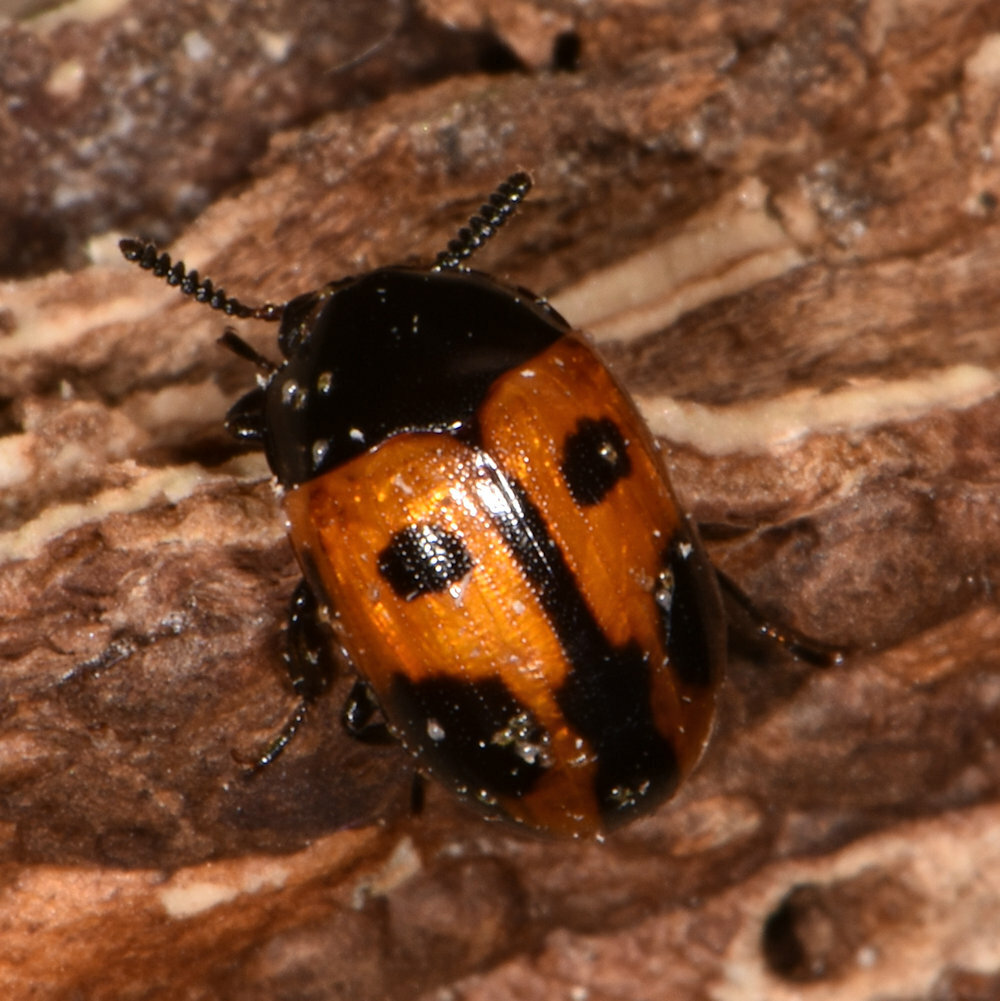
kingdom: Animalia
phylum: Arthropoda
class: Insecta
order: Coleoptera
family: Tenebrionidae
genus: Diaperis
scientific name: Diaperis maculata
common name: Darkling beetle
